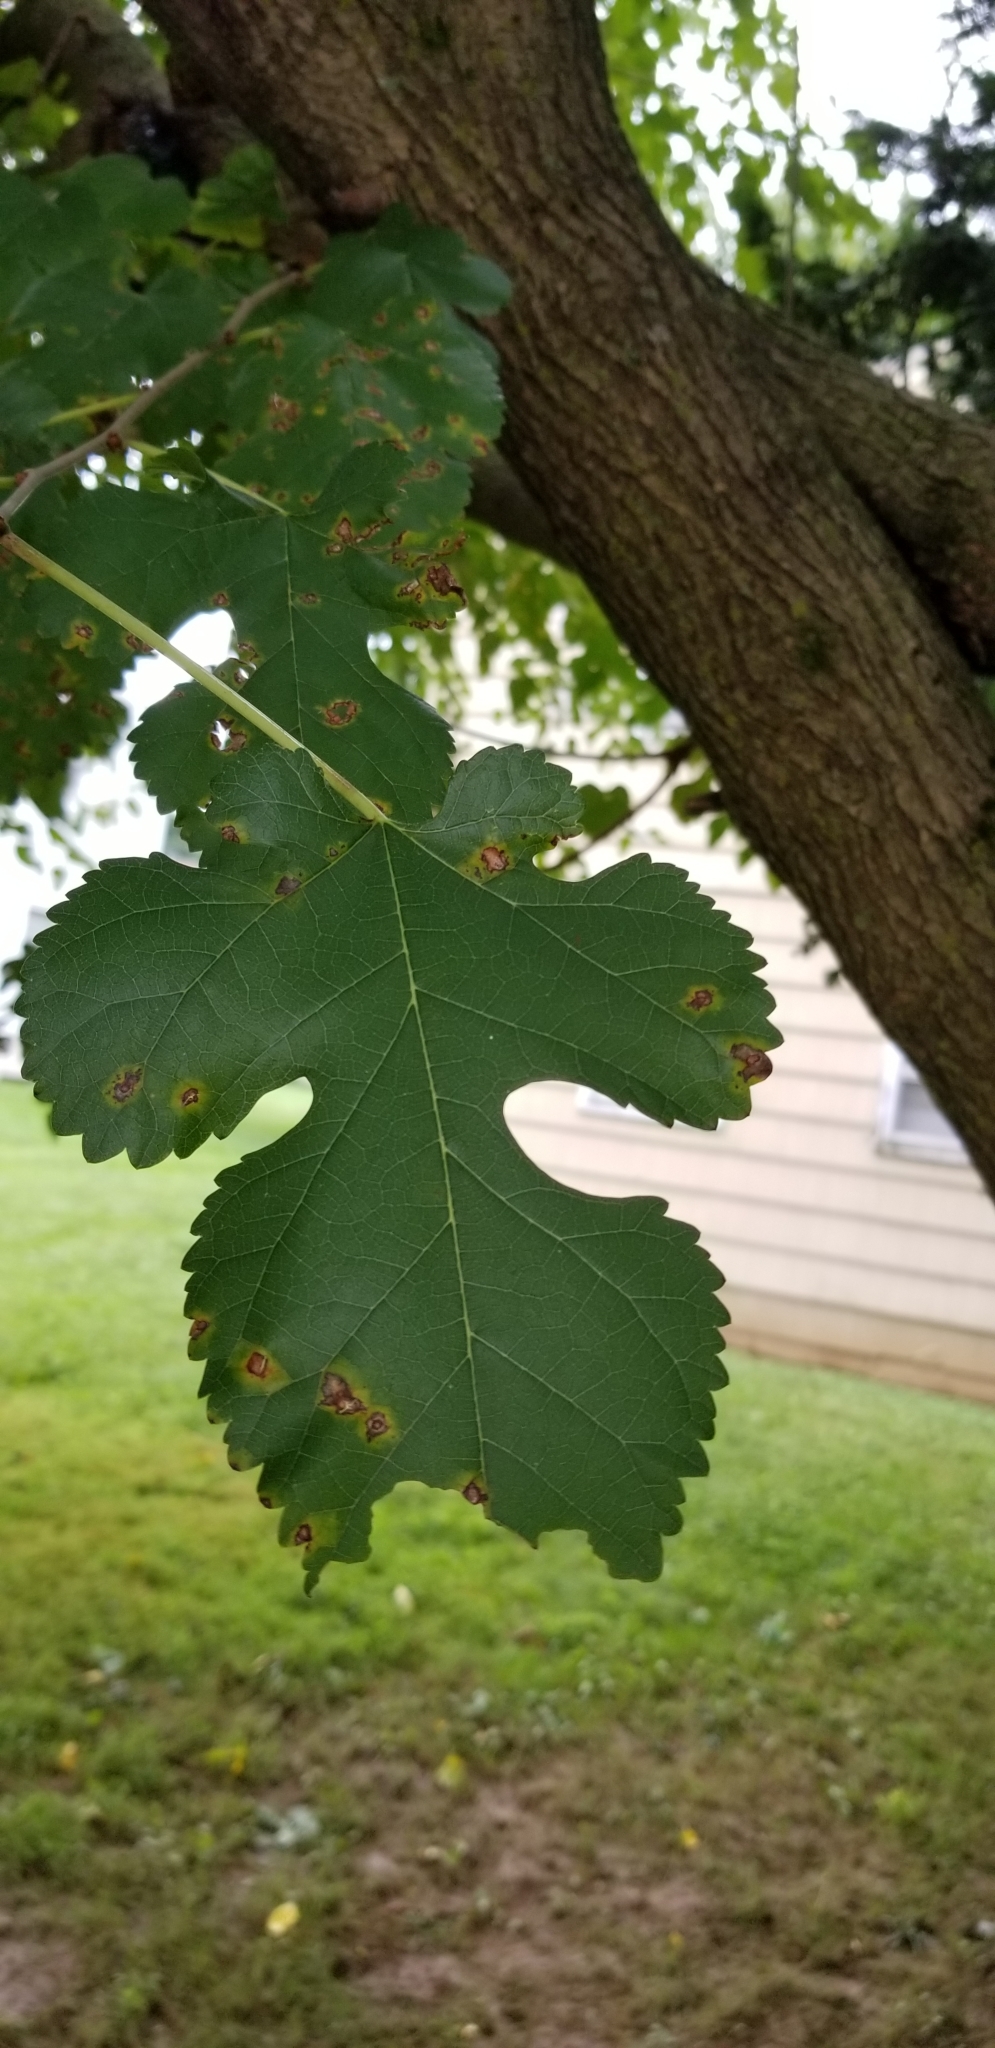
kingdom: Plantae
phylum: Tracheophyta
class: Magnoliopsida
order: Rosales
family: Moraceae
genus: Morus
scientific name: Morus alba
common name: White mulberry
